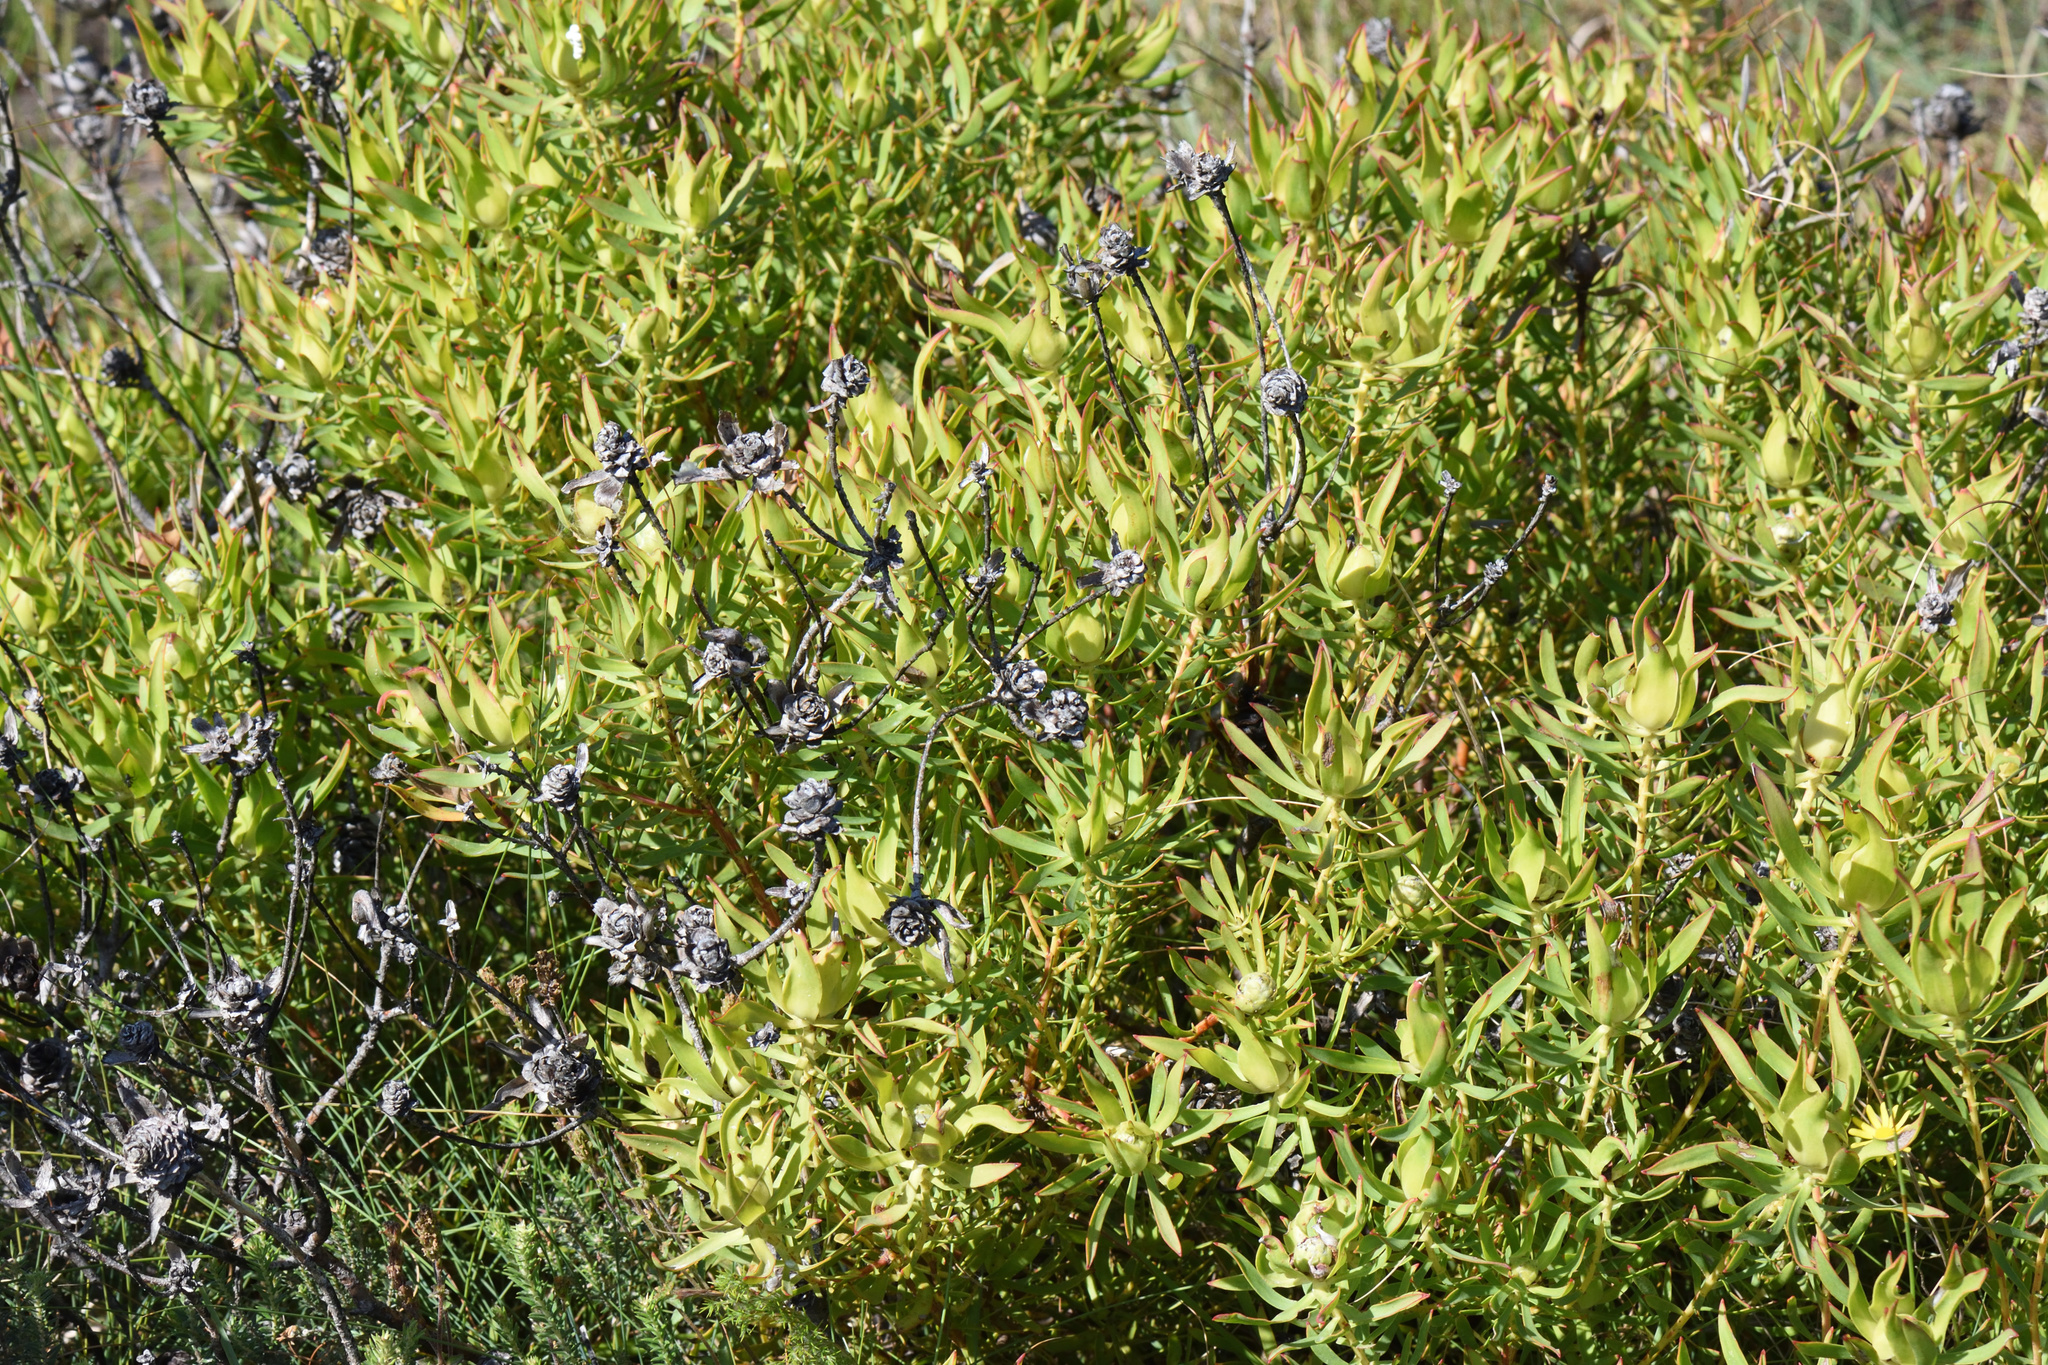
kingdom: Plantae
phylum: Tracheophyta
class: Magnoliopsida
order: Proteales
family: Proteaceae
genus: Leucadendron
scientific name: Leucadendron salignum
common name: Common sunshine conebush
